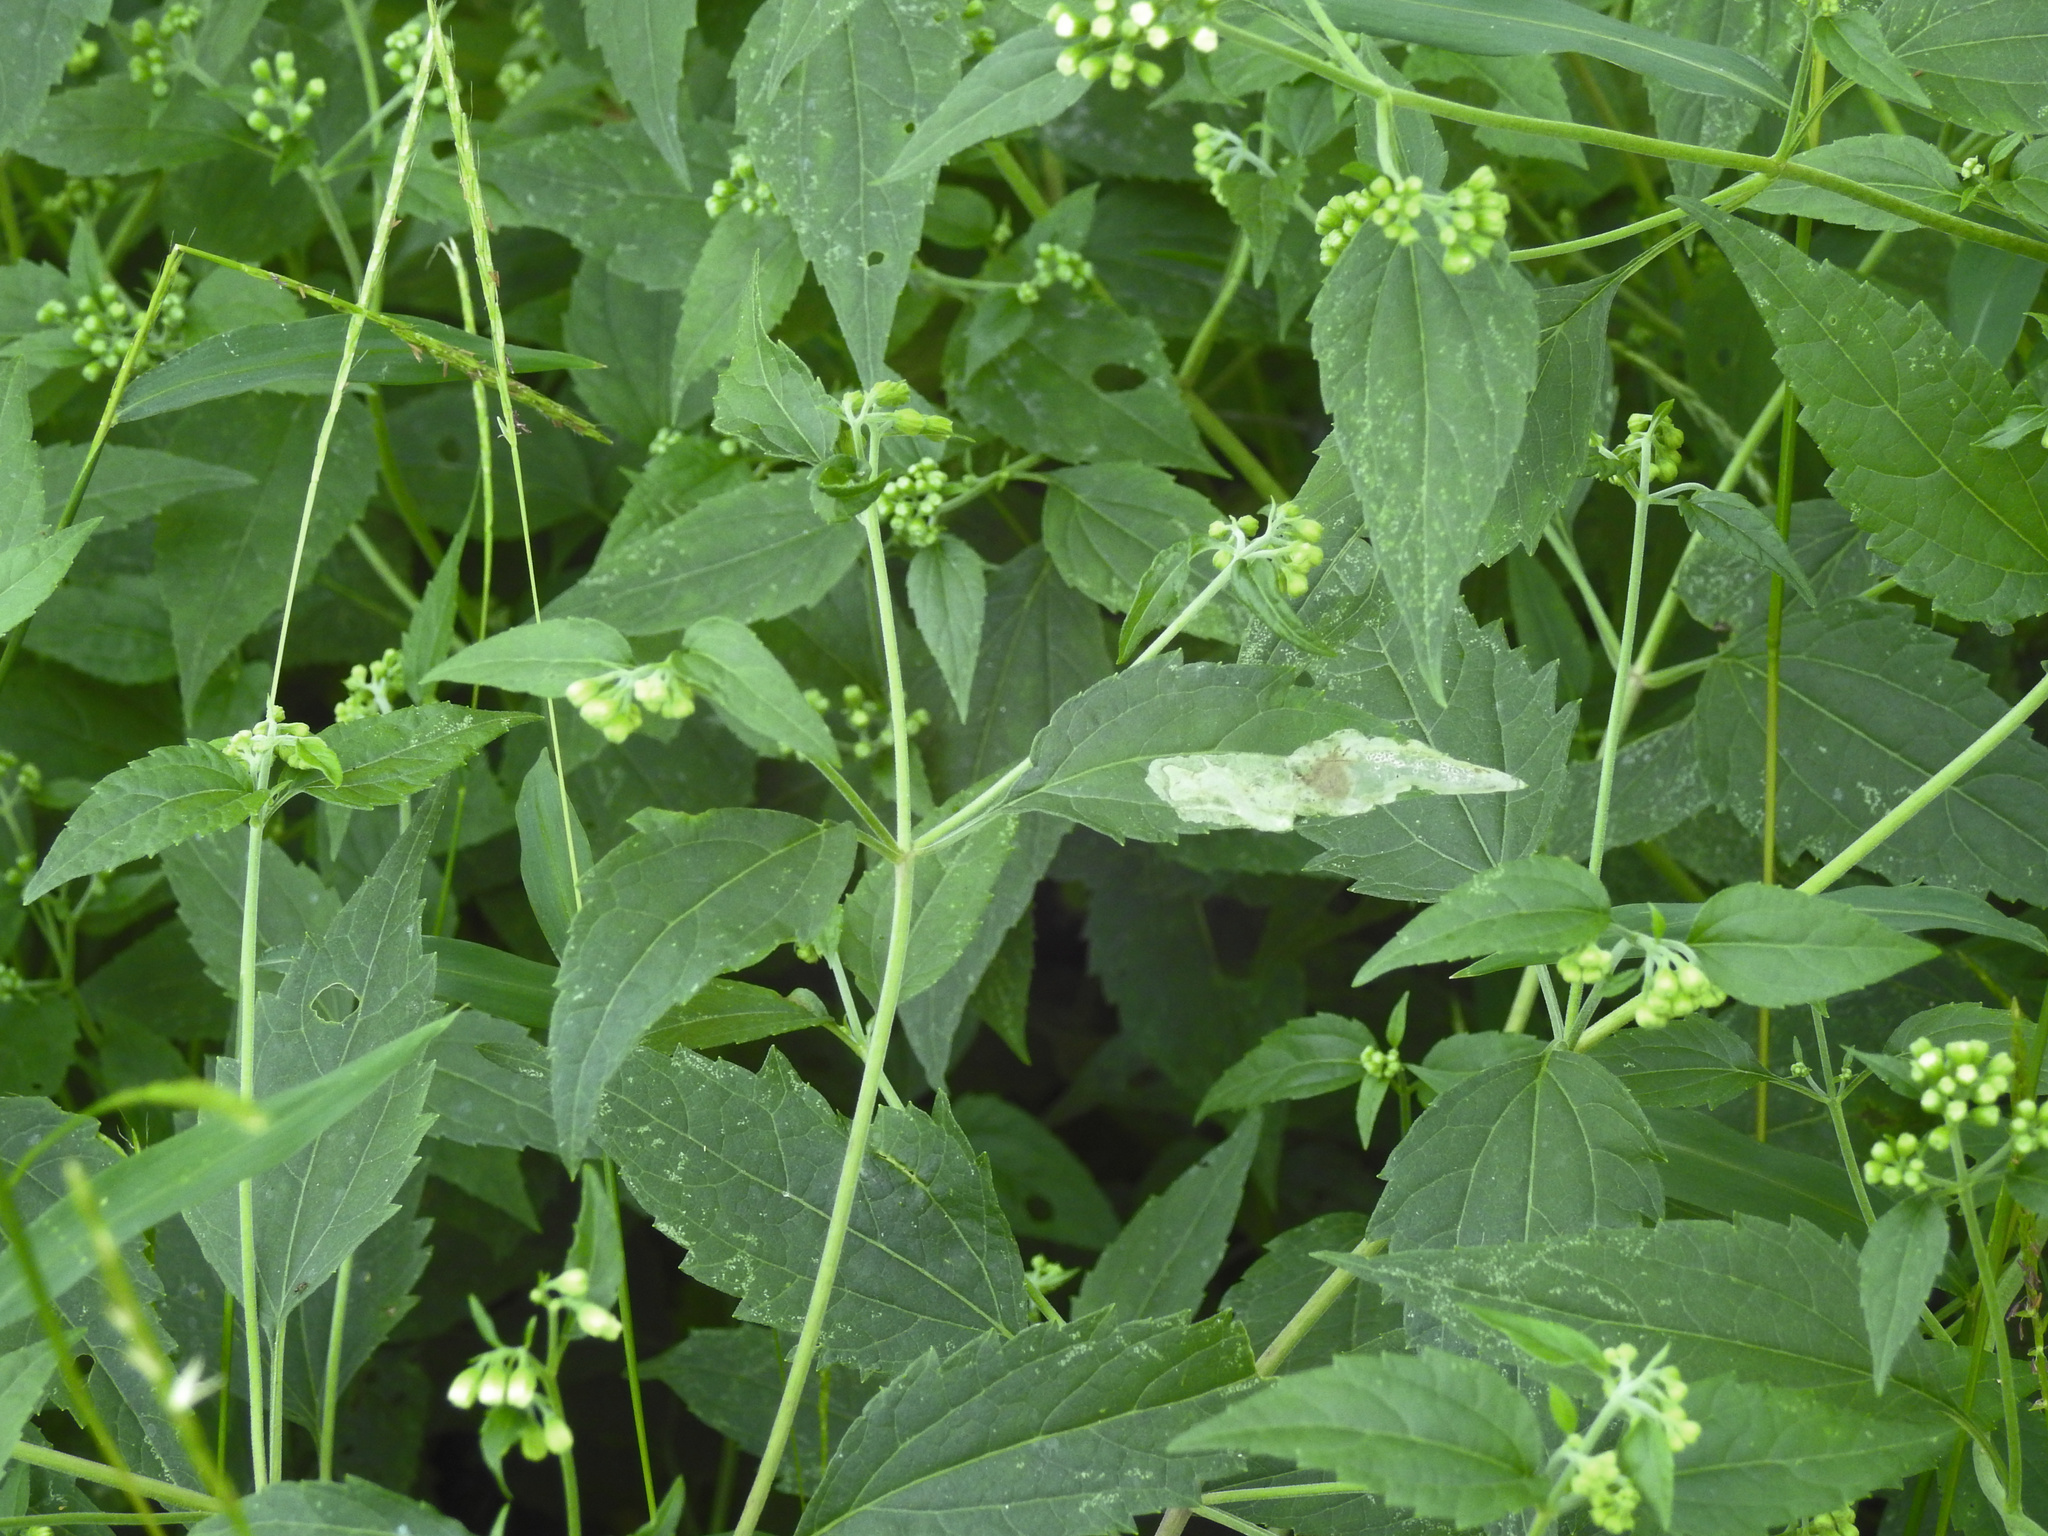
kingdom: Plantae
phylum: Tracheophyta
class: Magnoliopsida
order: Asterales
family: Asteraceae
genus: Ageratina
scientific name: Ageratina altissima
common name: White snakeroot
